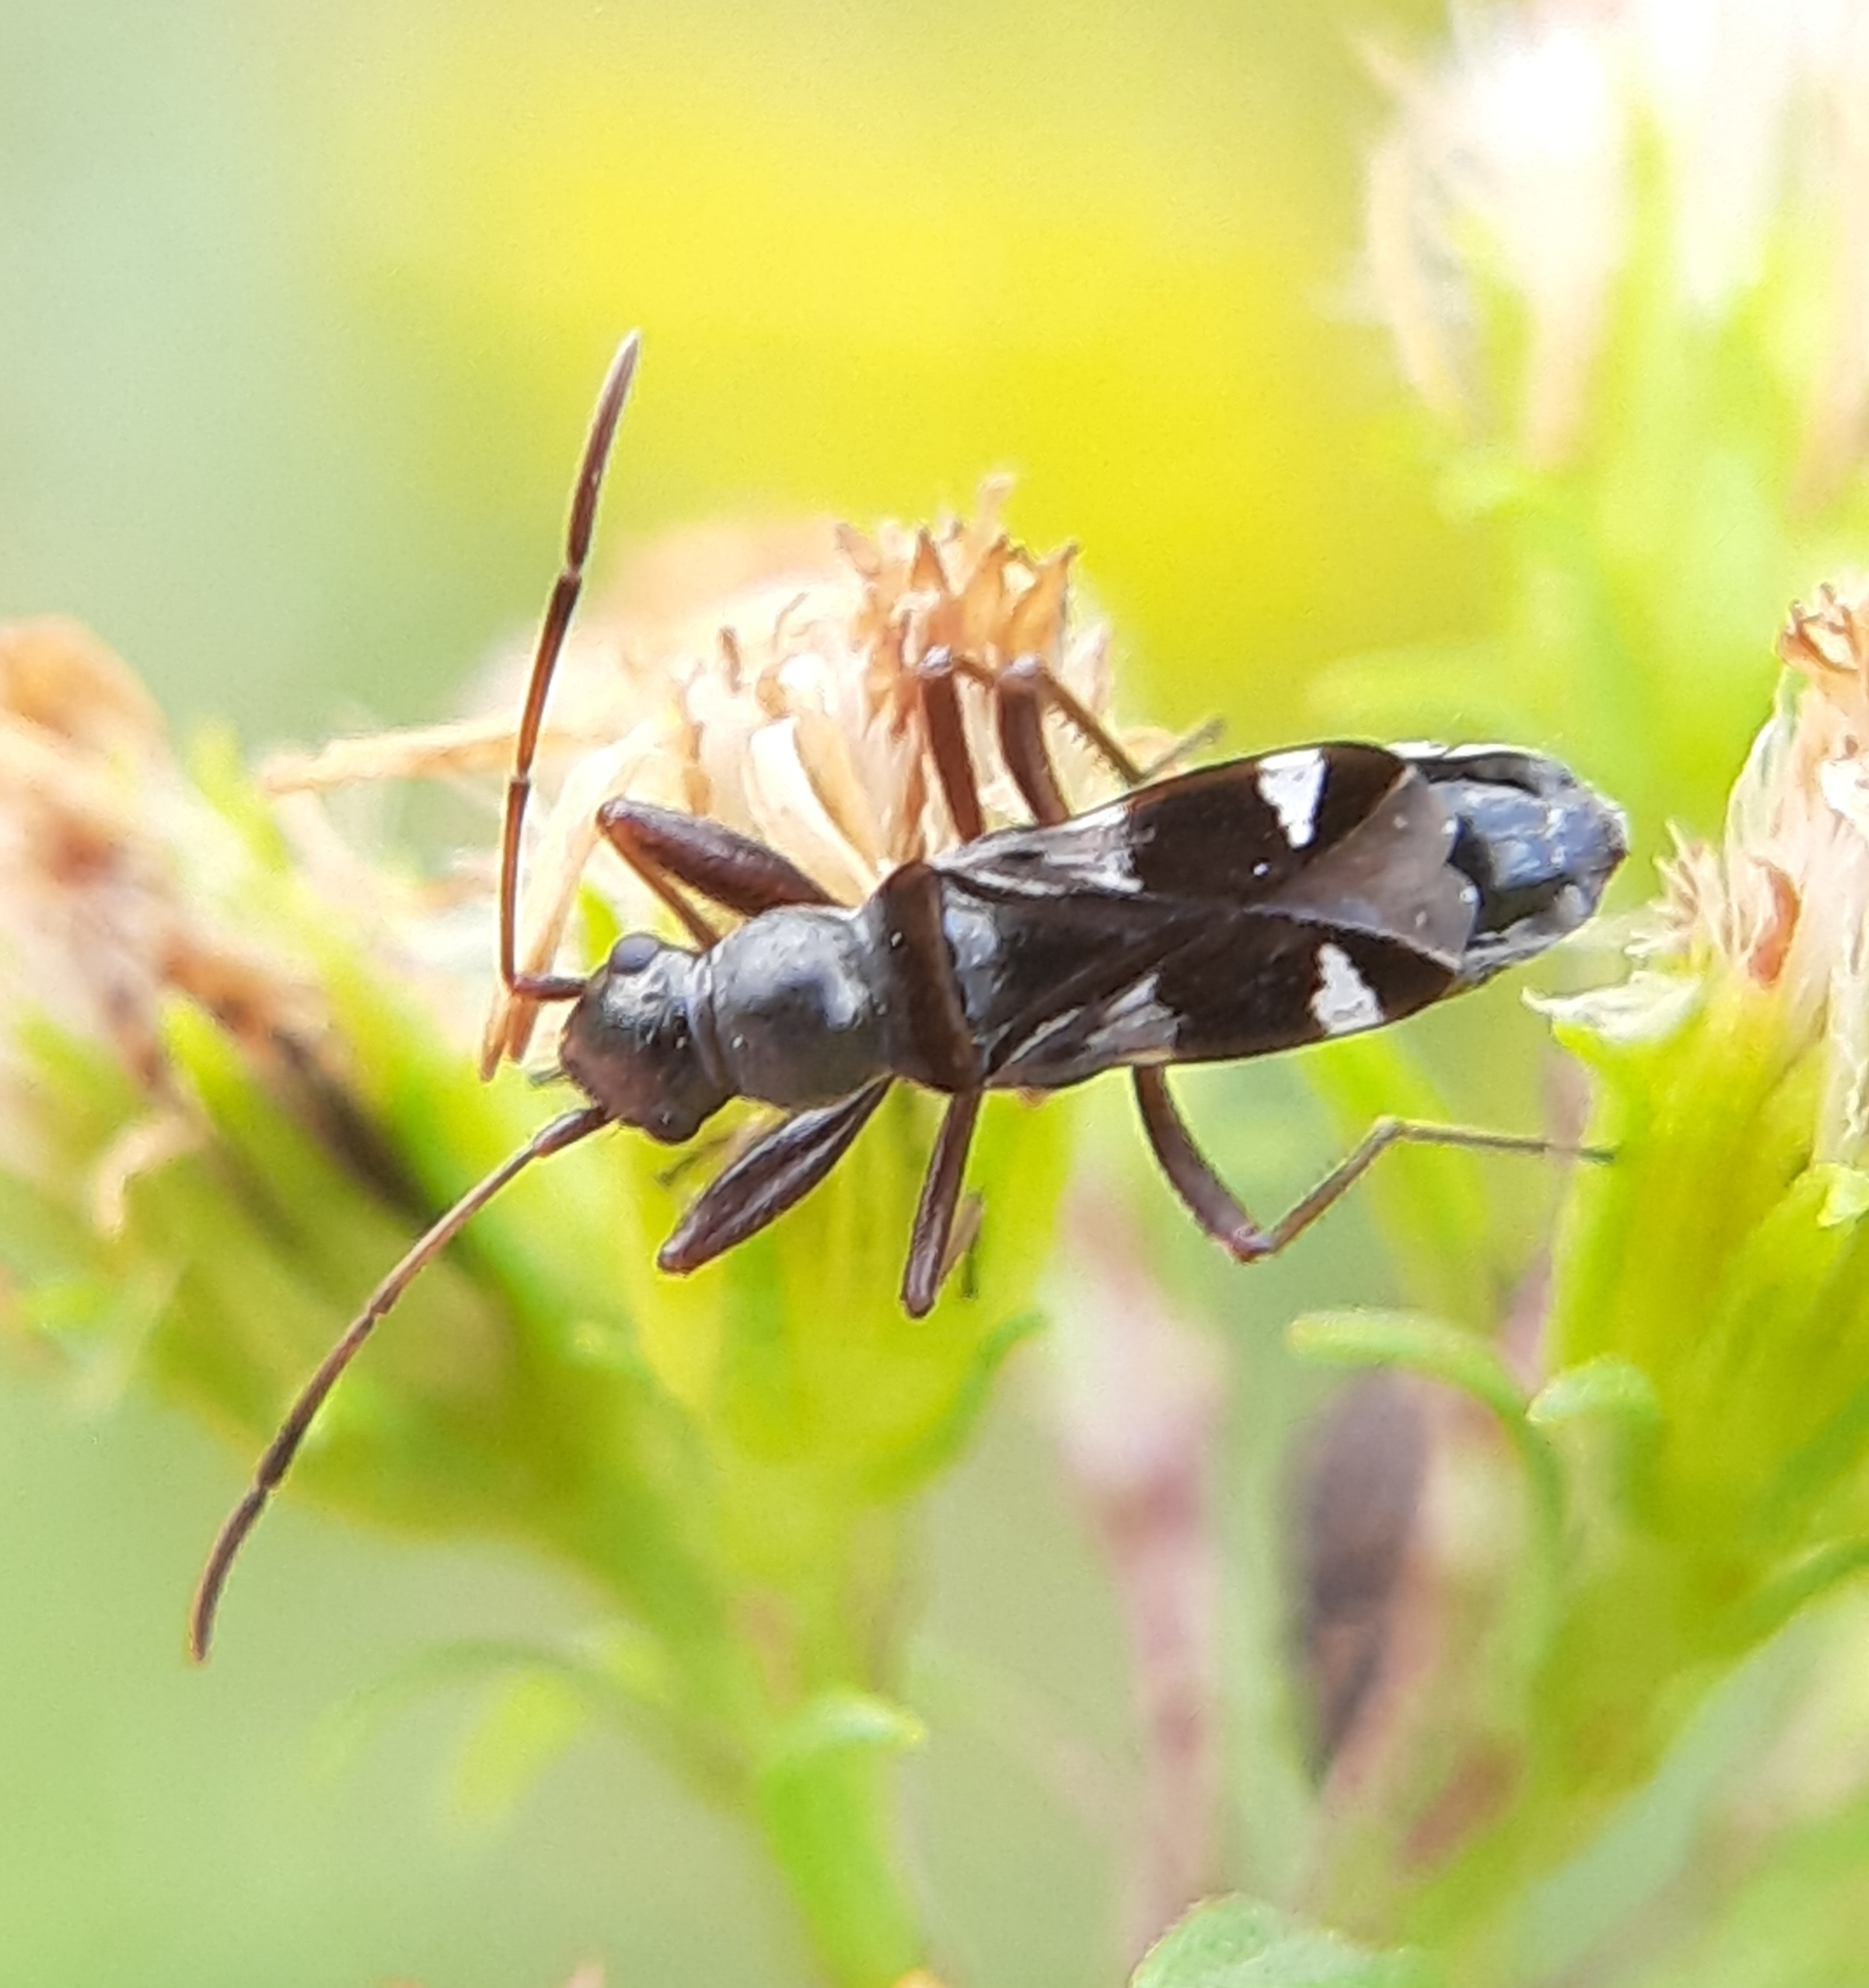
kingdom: Animalia
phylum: Arthropoda
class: Insecta
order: Hemiptera
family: Rhyparochromidae
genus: Slaterobius
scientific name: Slaterobius insignis
